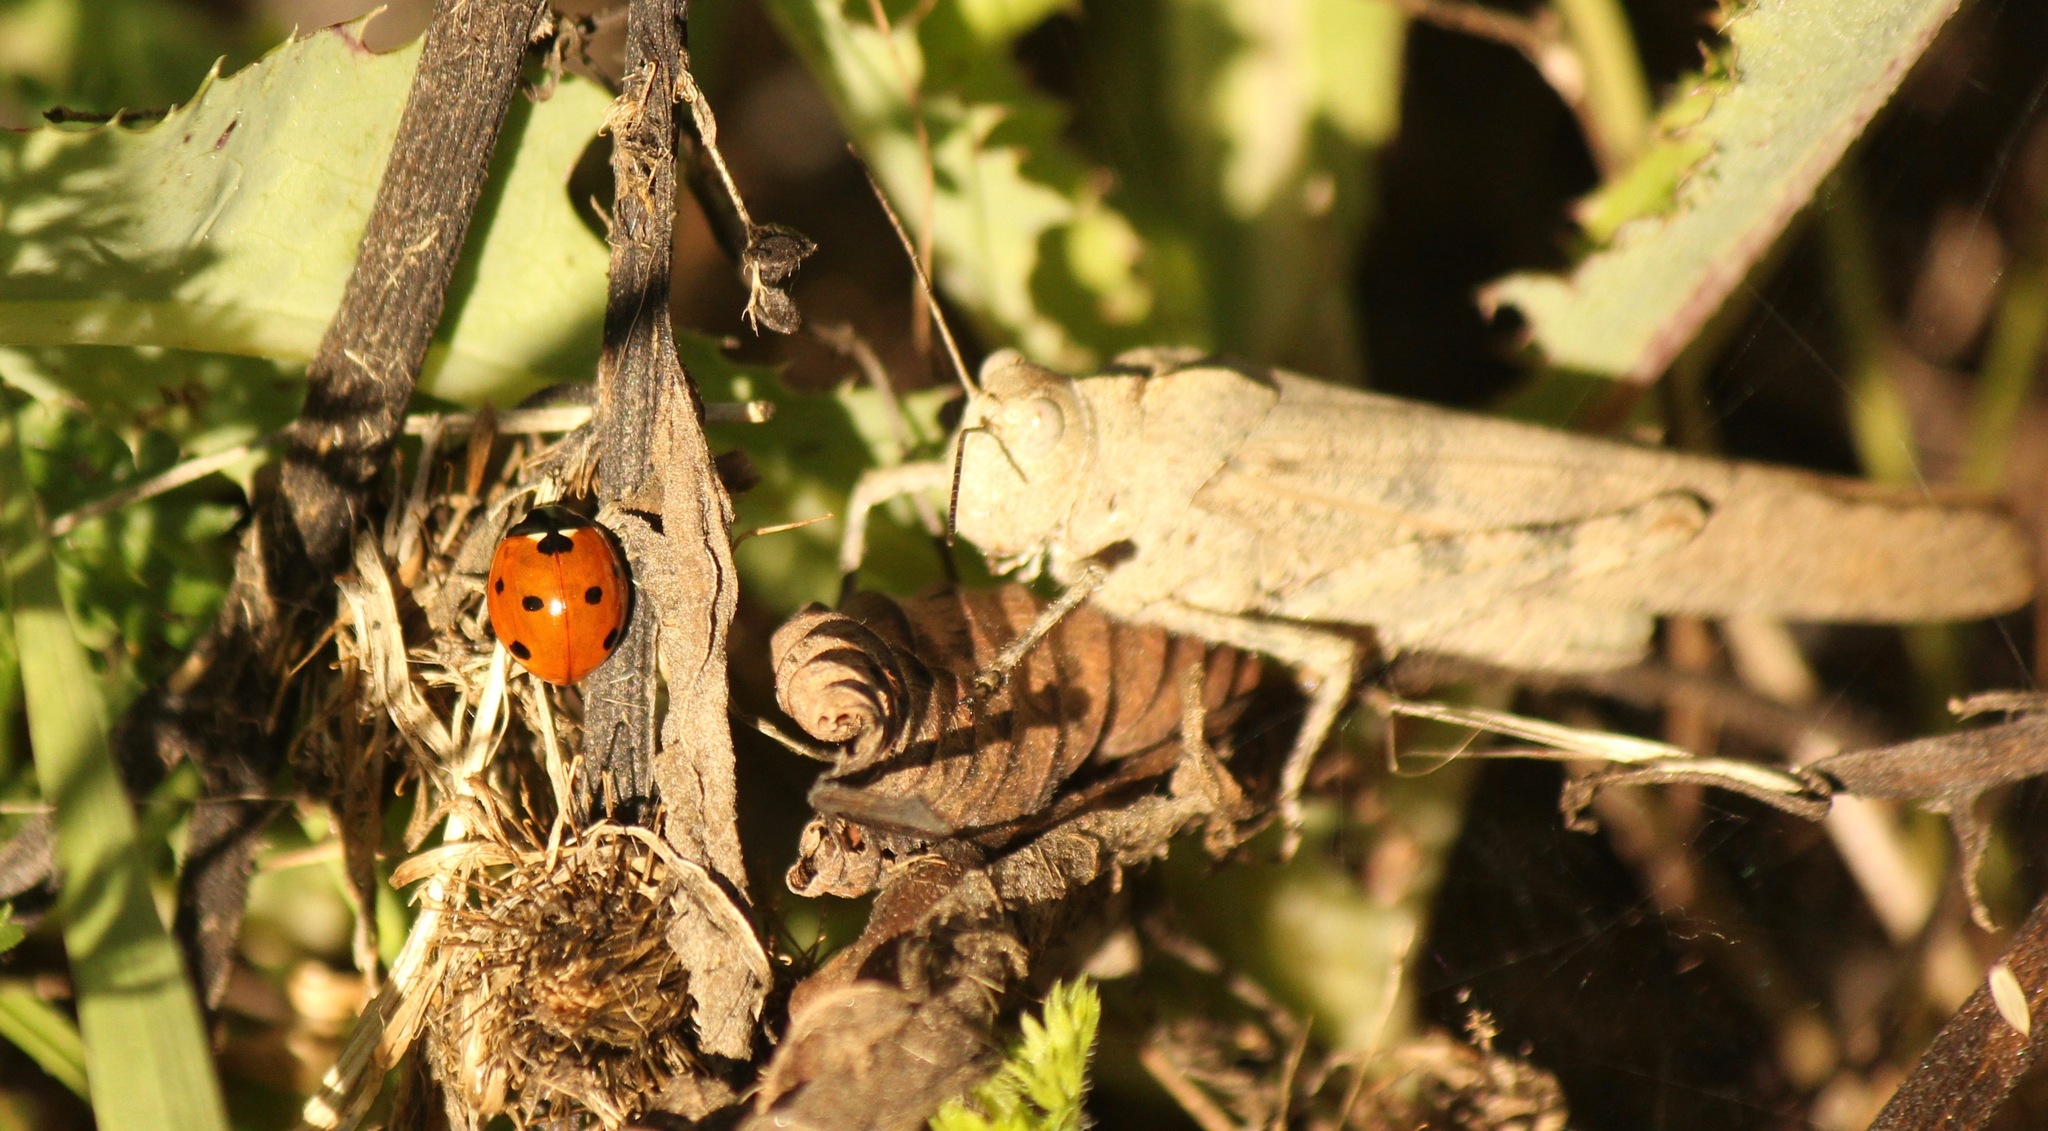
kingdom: Animalia
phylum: Arthropoda
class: Insecta
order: Coleoptera
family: Coccinellidae
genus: Coccinella
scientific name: Coccinella septempunctata
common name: Sevenspotted lady beetle
